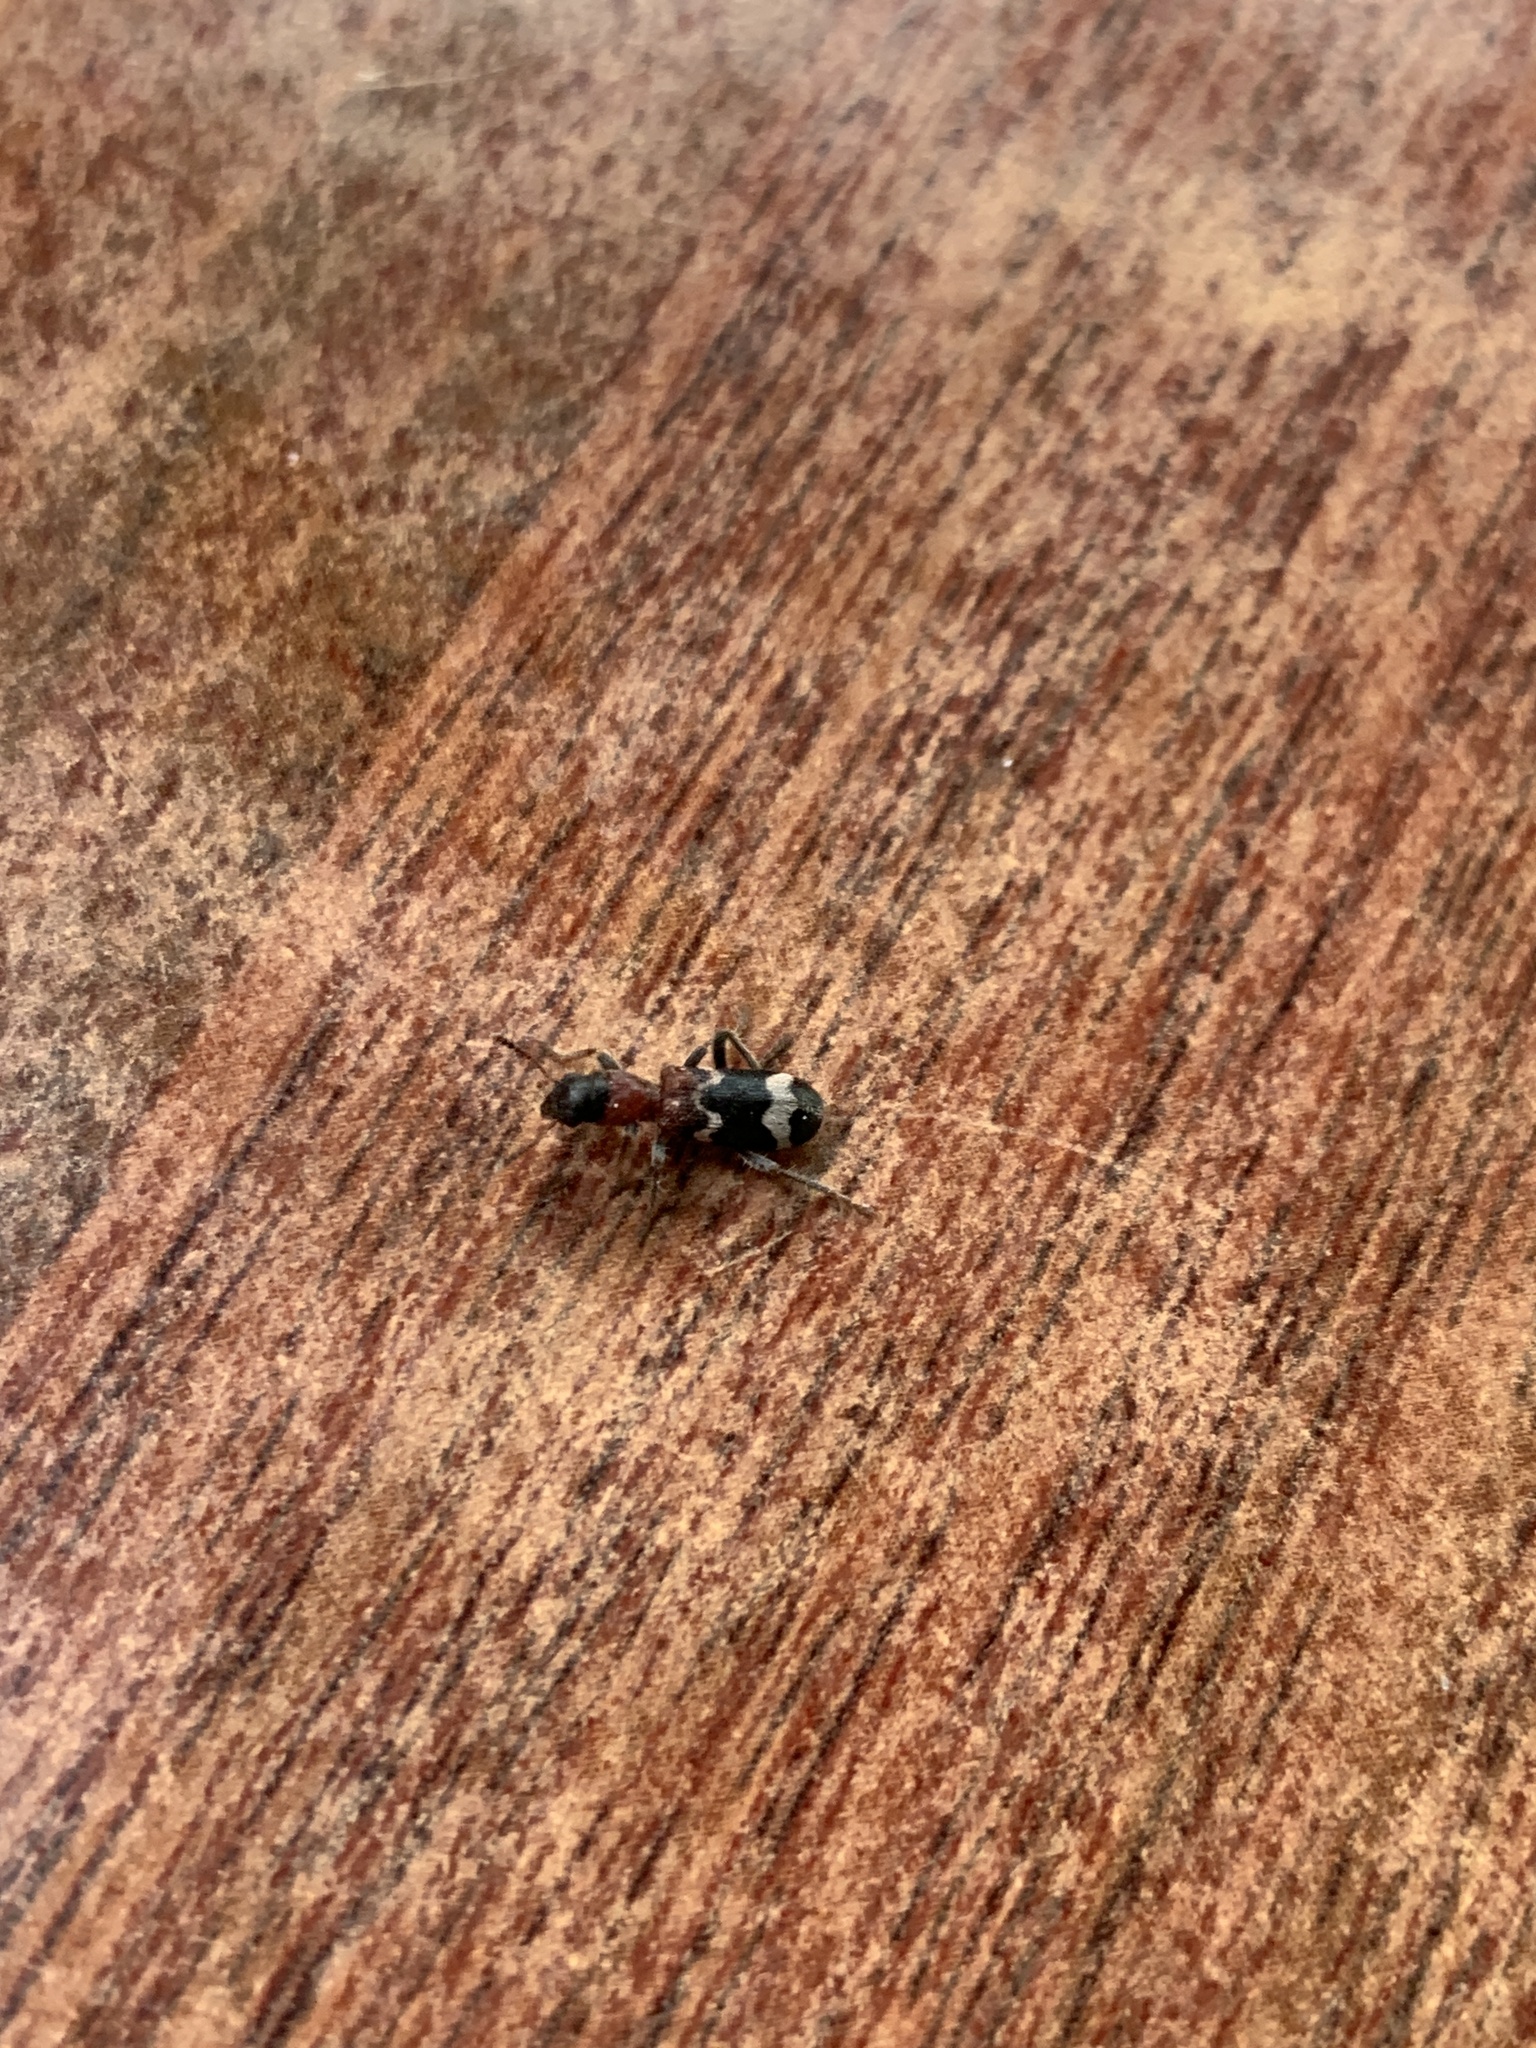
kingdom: Animalia
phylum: Arthropoda
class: Insecta
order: Coleoptera
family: Cleridae
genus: Thanasimus
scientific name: Thanasimus formicarius
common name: Ant beetle
